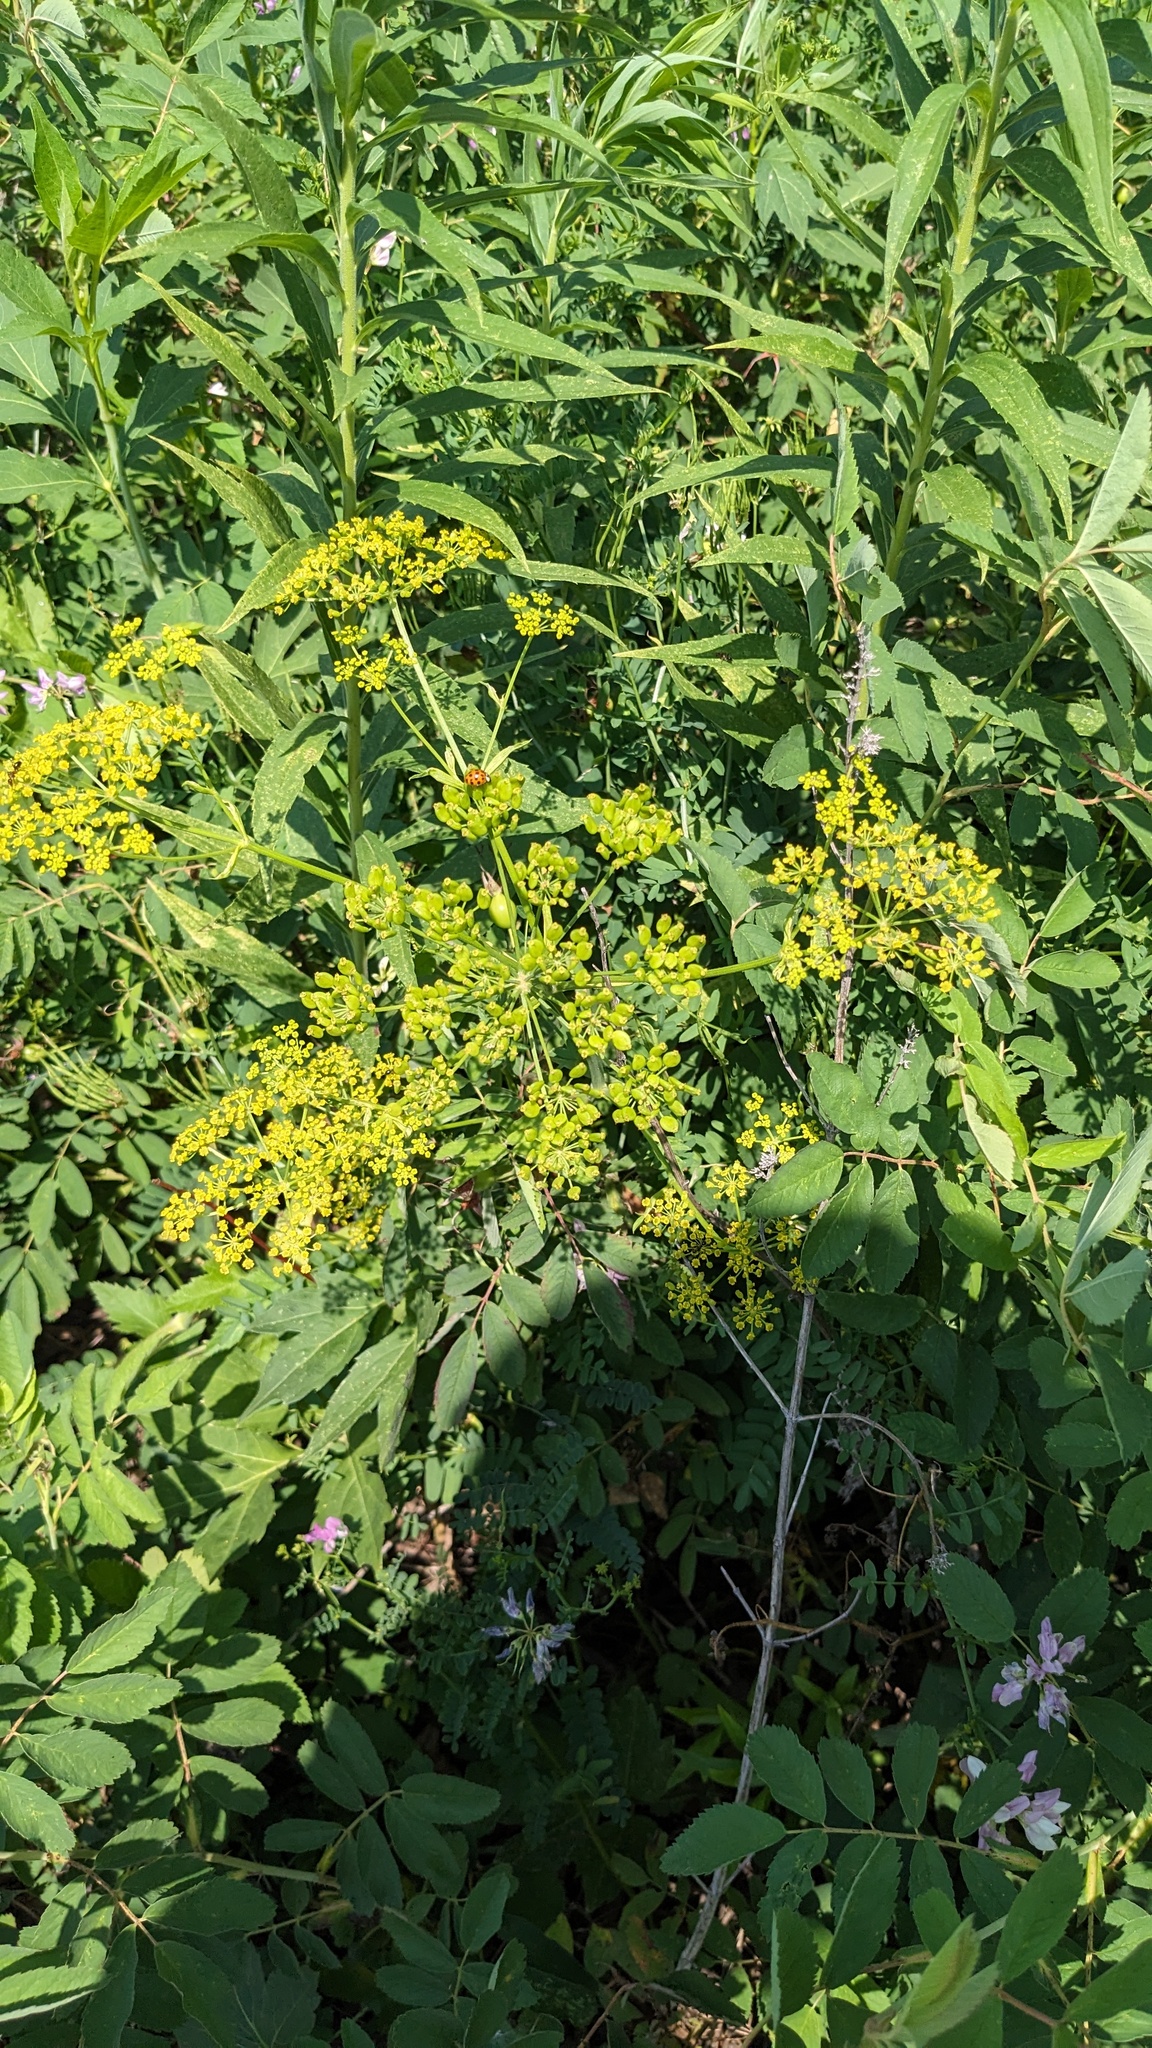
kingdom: Plantae
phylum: Tracheophyta
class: Magnoliopsida
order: Apiales
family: Apiaceae
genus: Pastinaca
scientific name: Pastinaca sativa
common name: Wild parsnip
